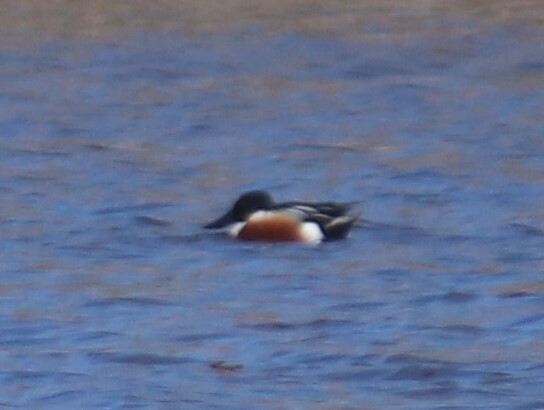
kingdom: Animalia
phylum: Chordata
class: Aves
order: Anseriformes
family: Anatidae
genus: Spatula
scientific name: Spatula clypeata
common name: Northern shoveler
